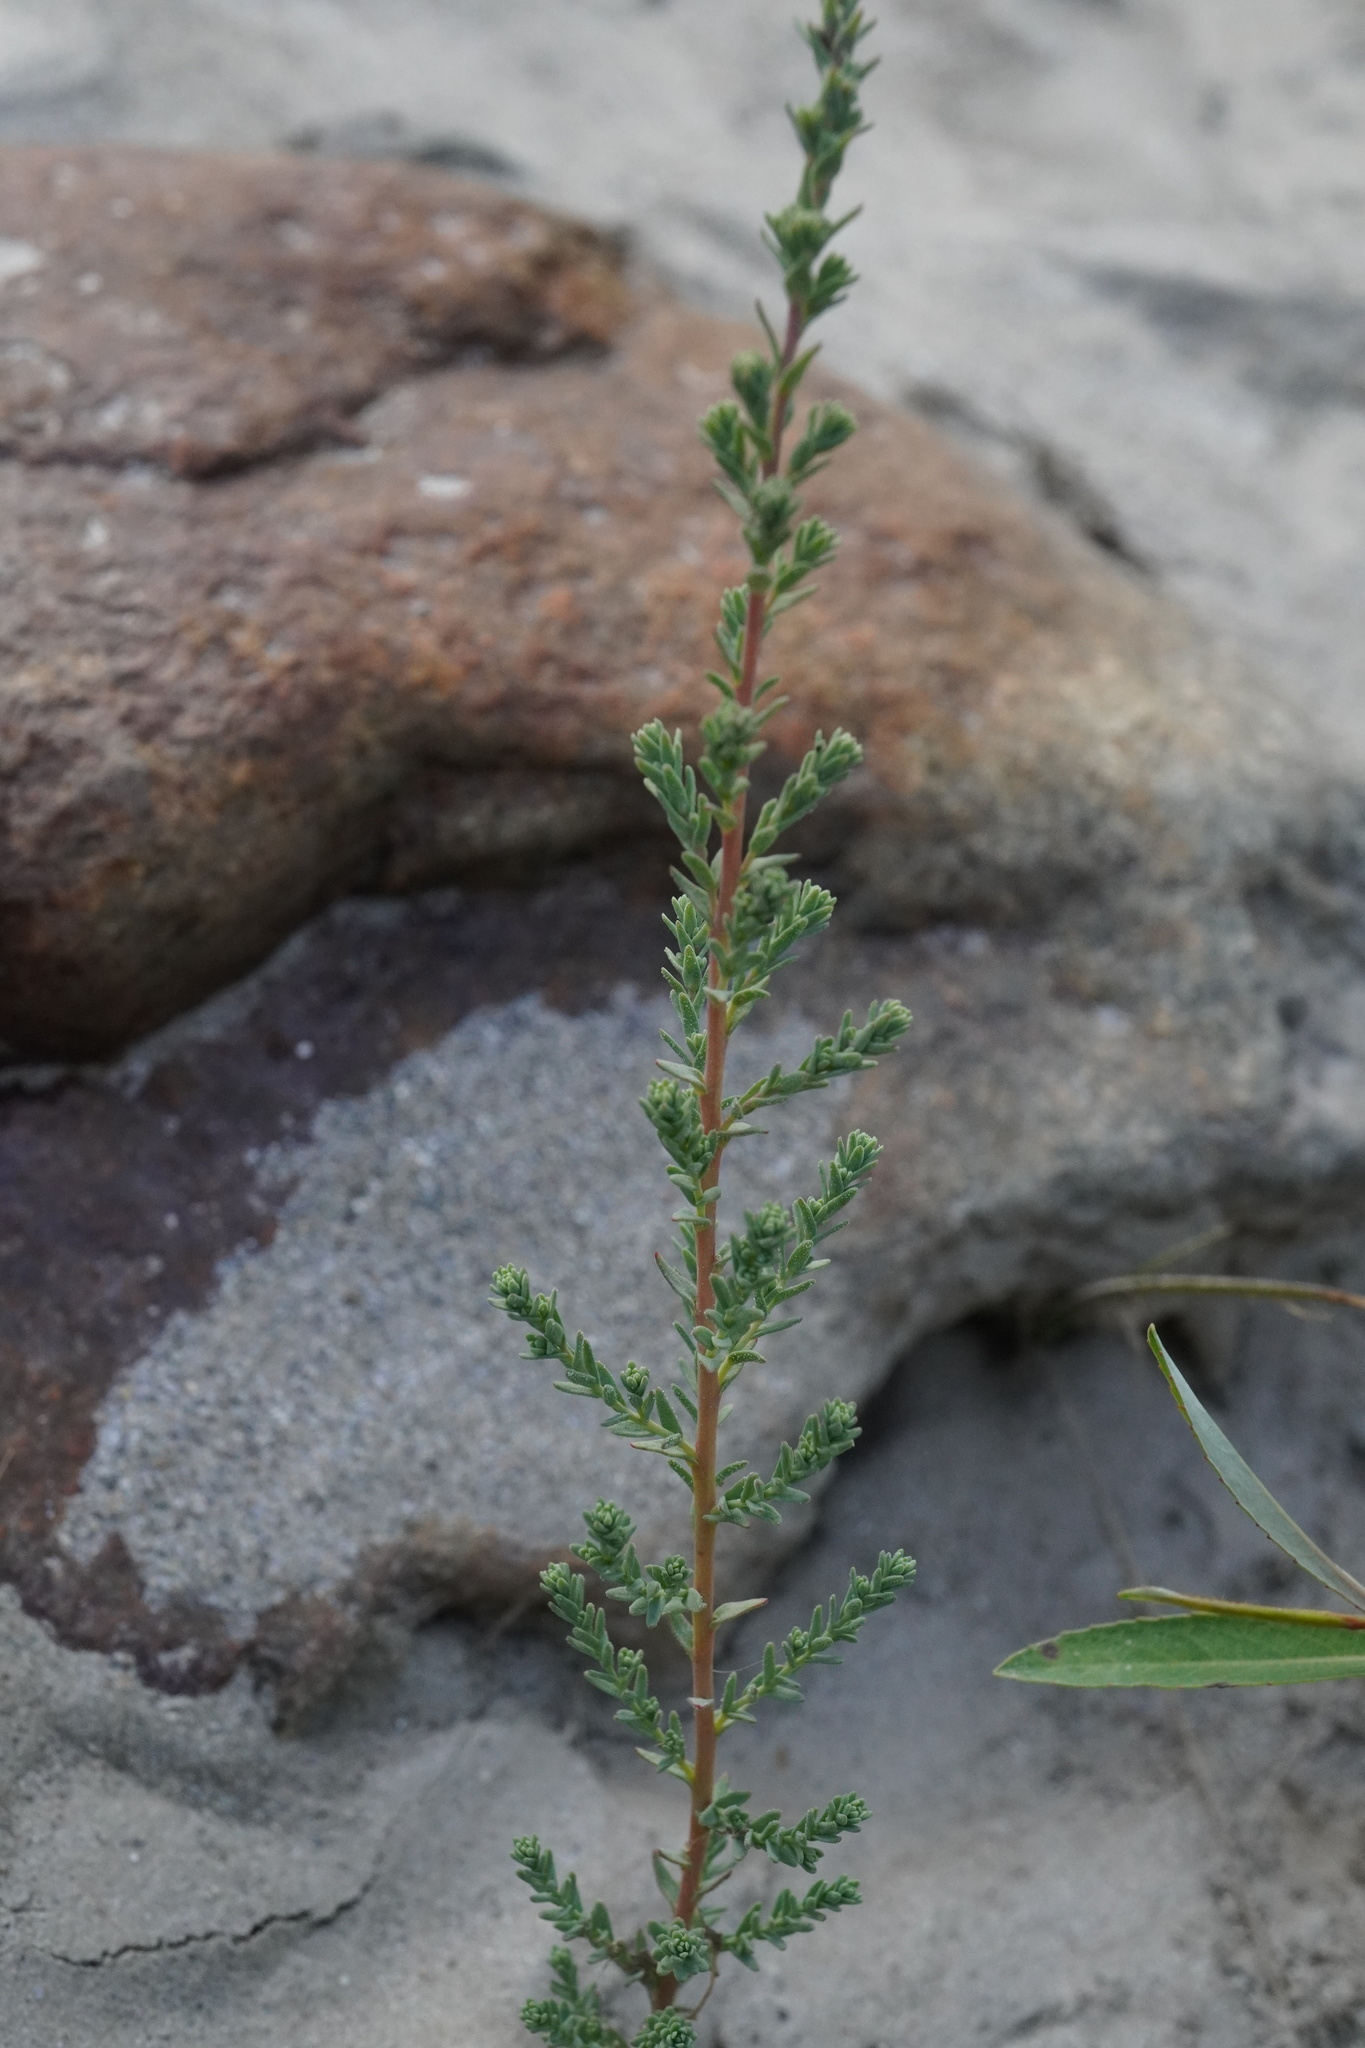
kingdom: Plantae
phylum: Tracheophyta
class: Magnoliopsida
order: Caryophyllales
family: Tamaricaceae
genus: Myricaria
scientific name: Myricaria germanica
